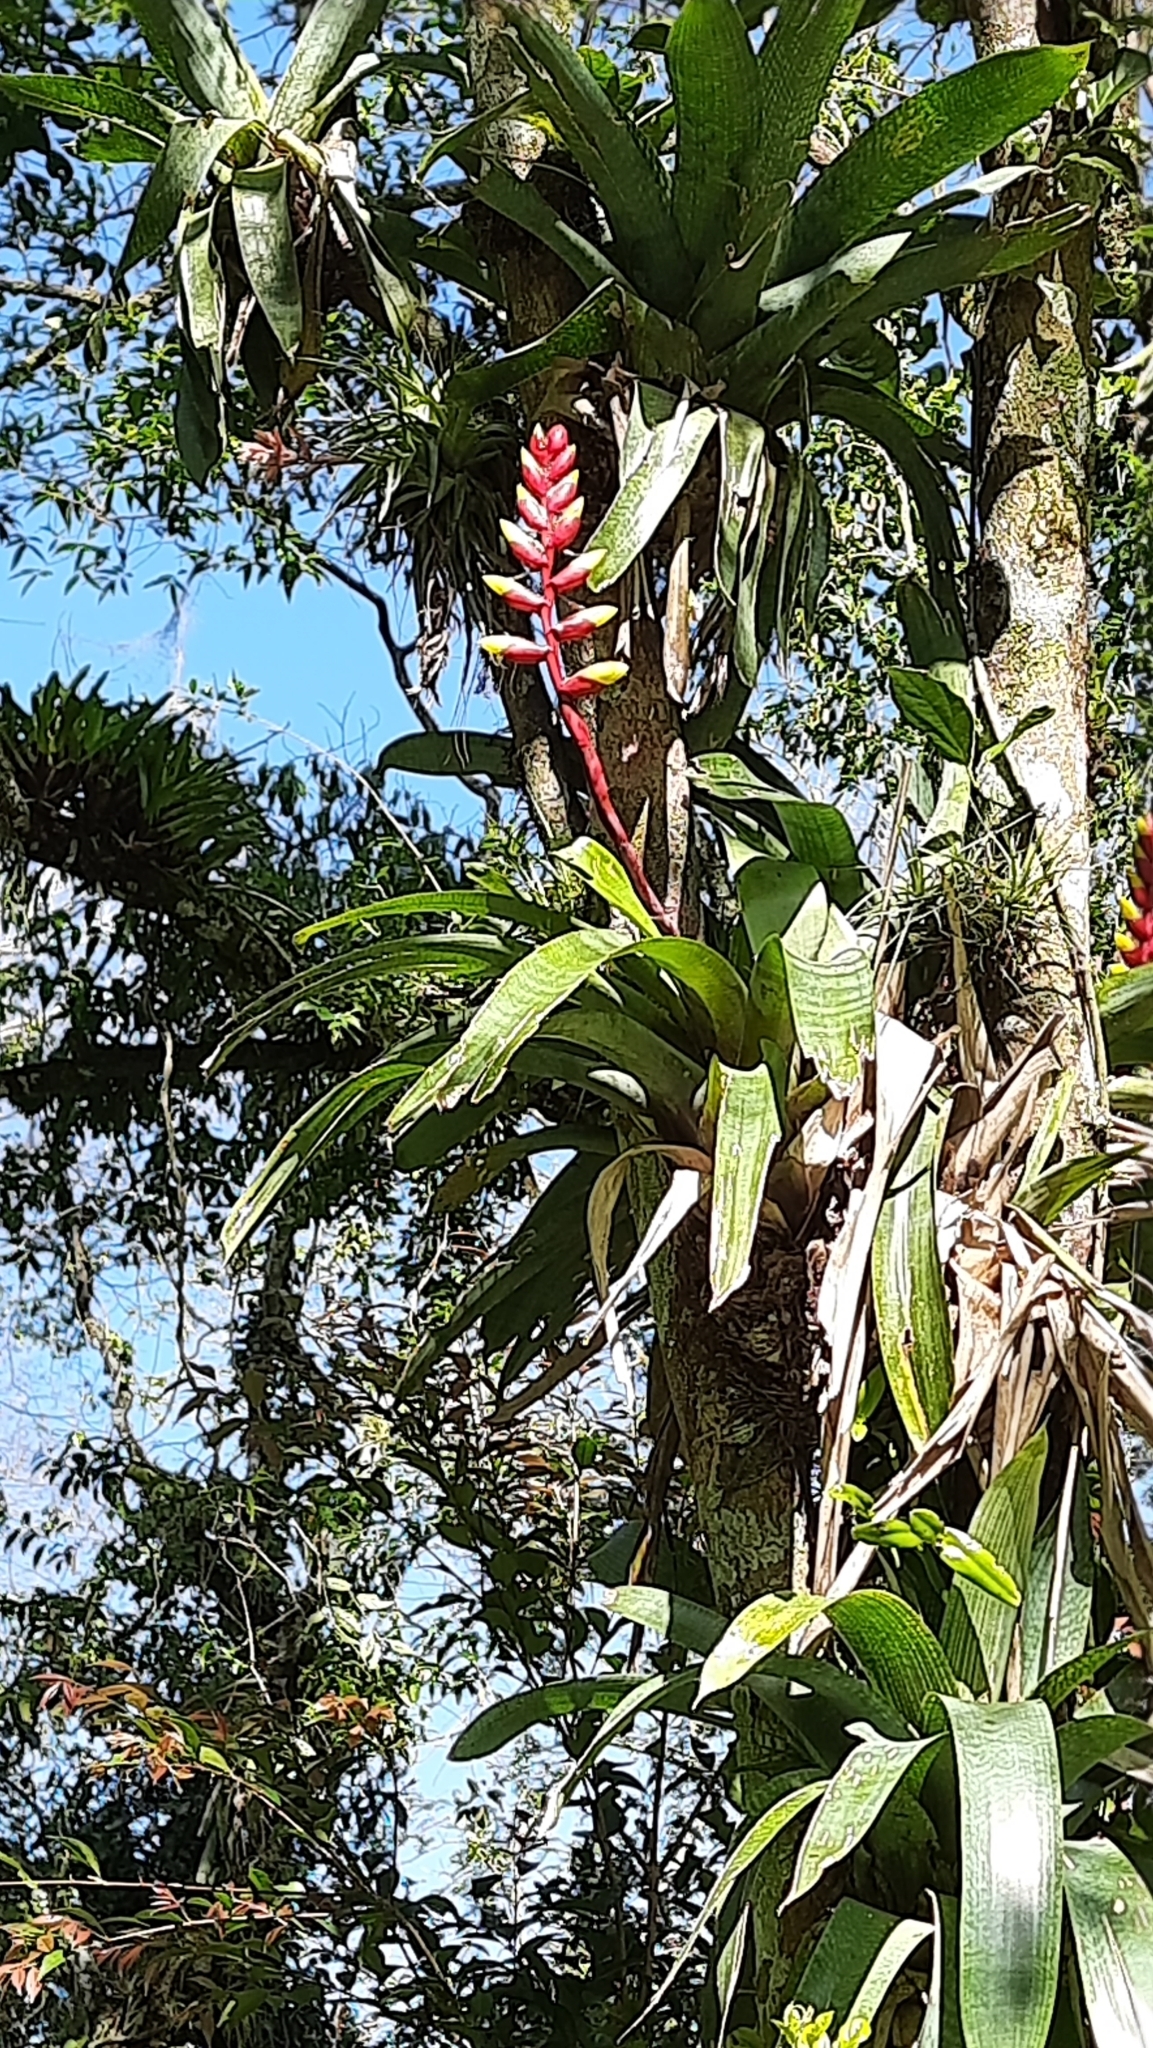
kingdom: Plantae
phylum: Tracheophyta
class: Liliopsida
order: Poales
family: Bromeliaceae
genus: Vriesea
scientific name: Vriesea platynema
